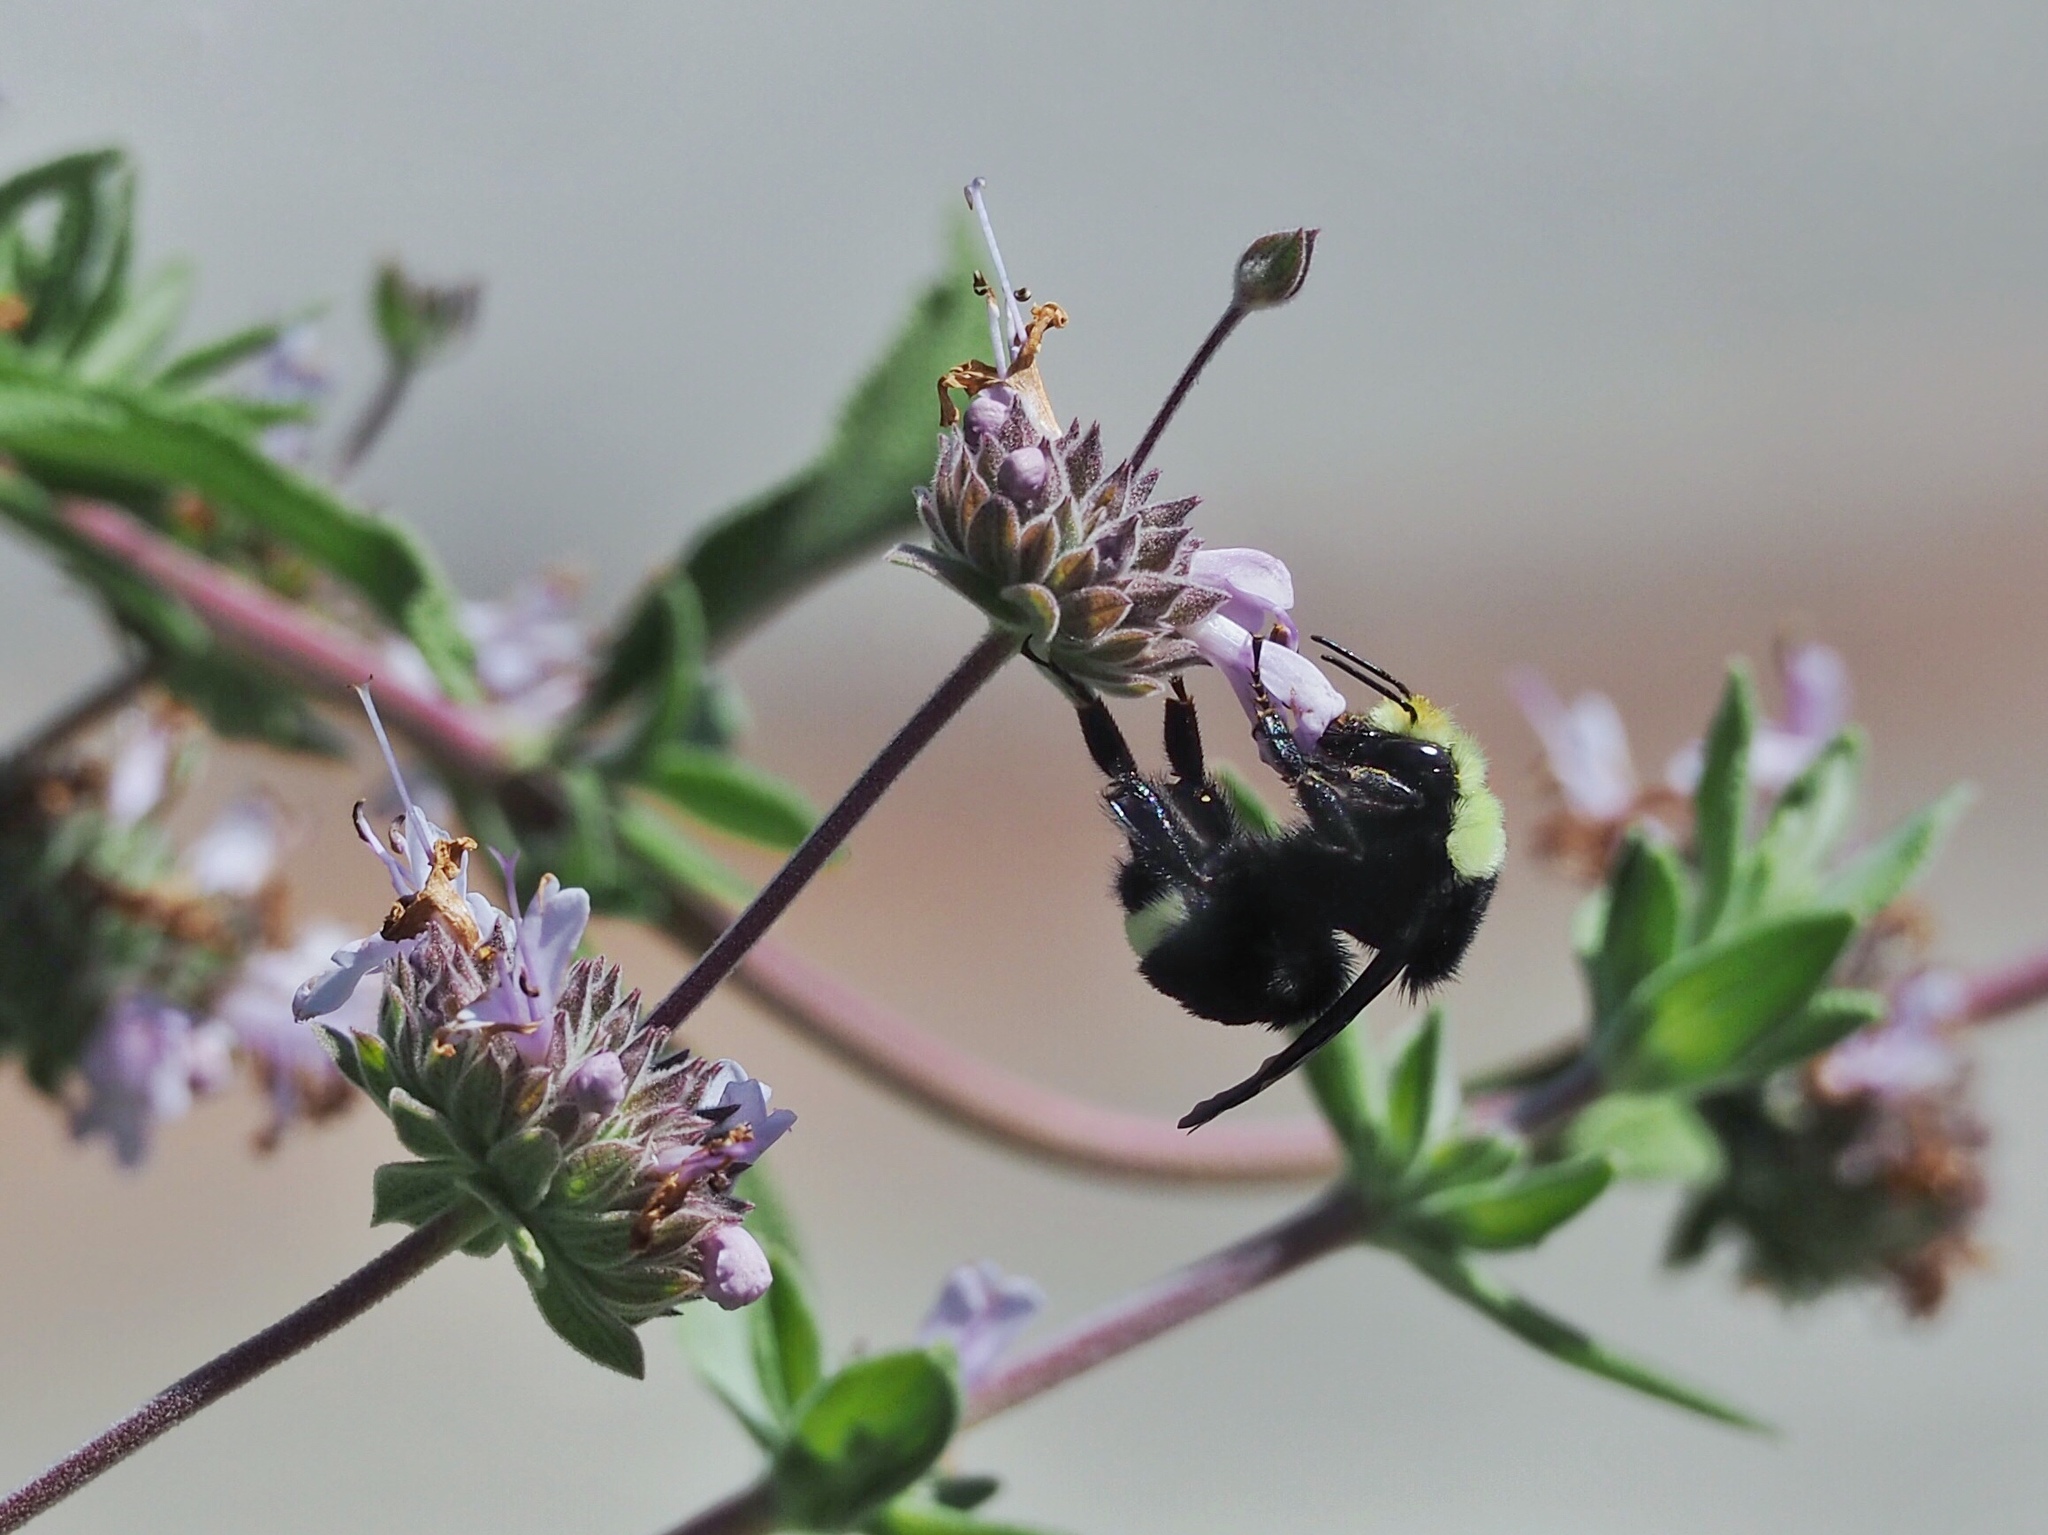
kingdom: Animalia
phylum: Arthropoda
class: Insecta
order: Hymenoptera
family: Apidae
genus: Bombus
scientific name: Bombus vosnesenskii
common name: Vosnesensky bumble bee
